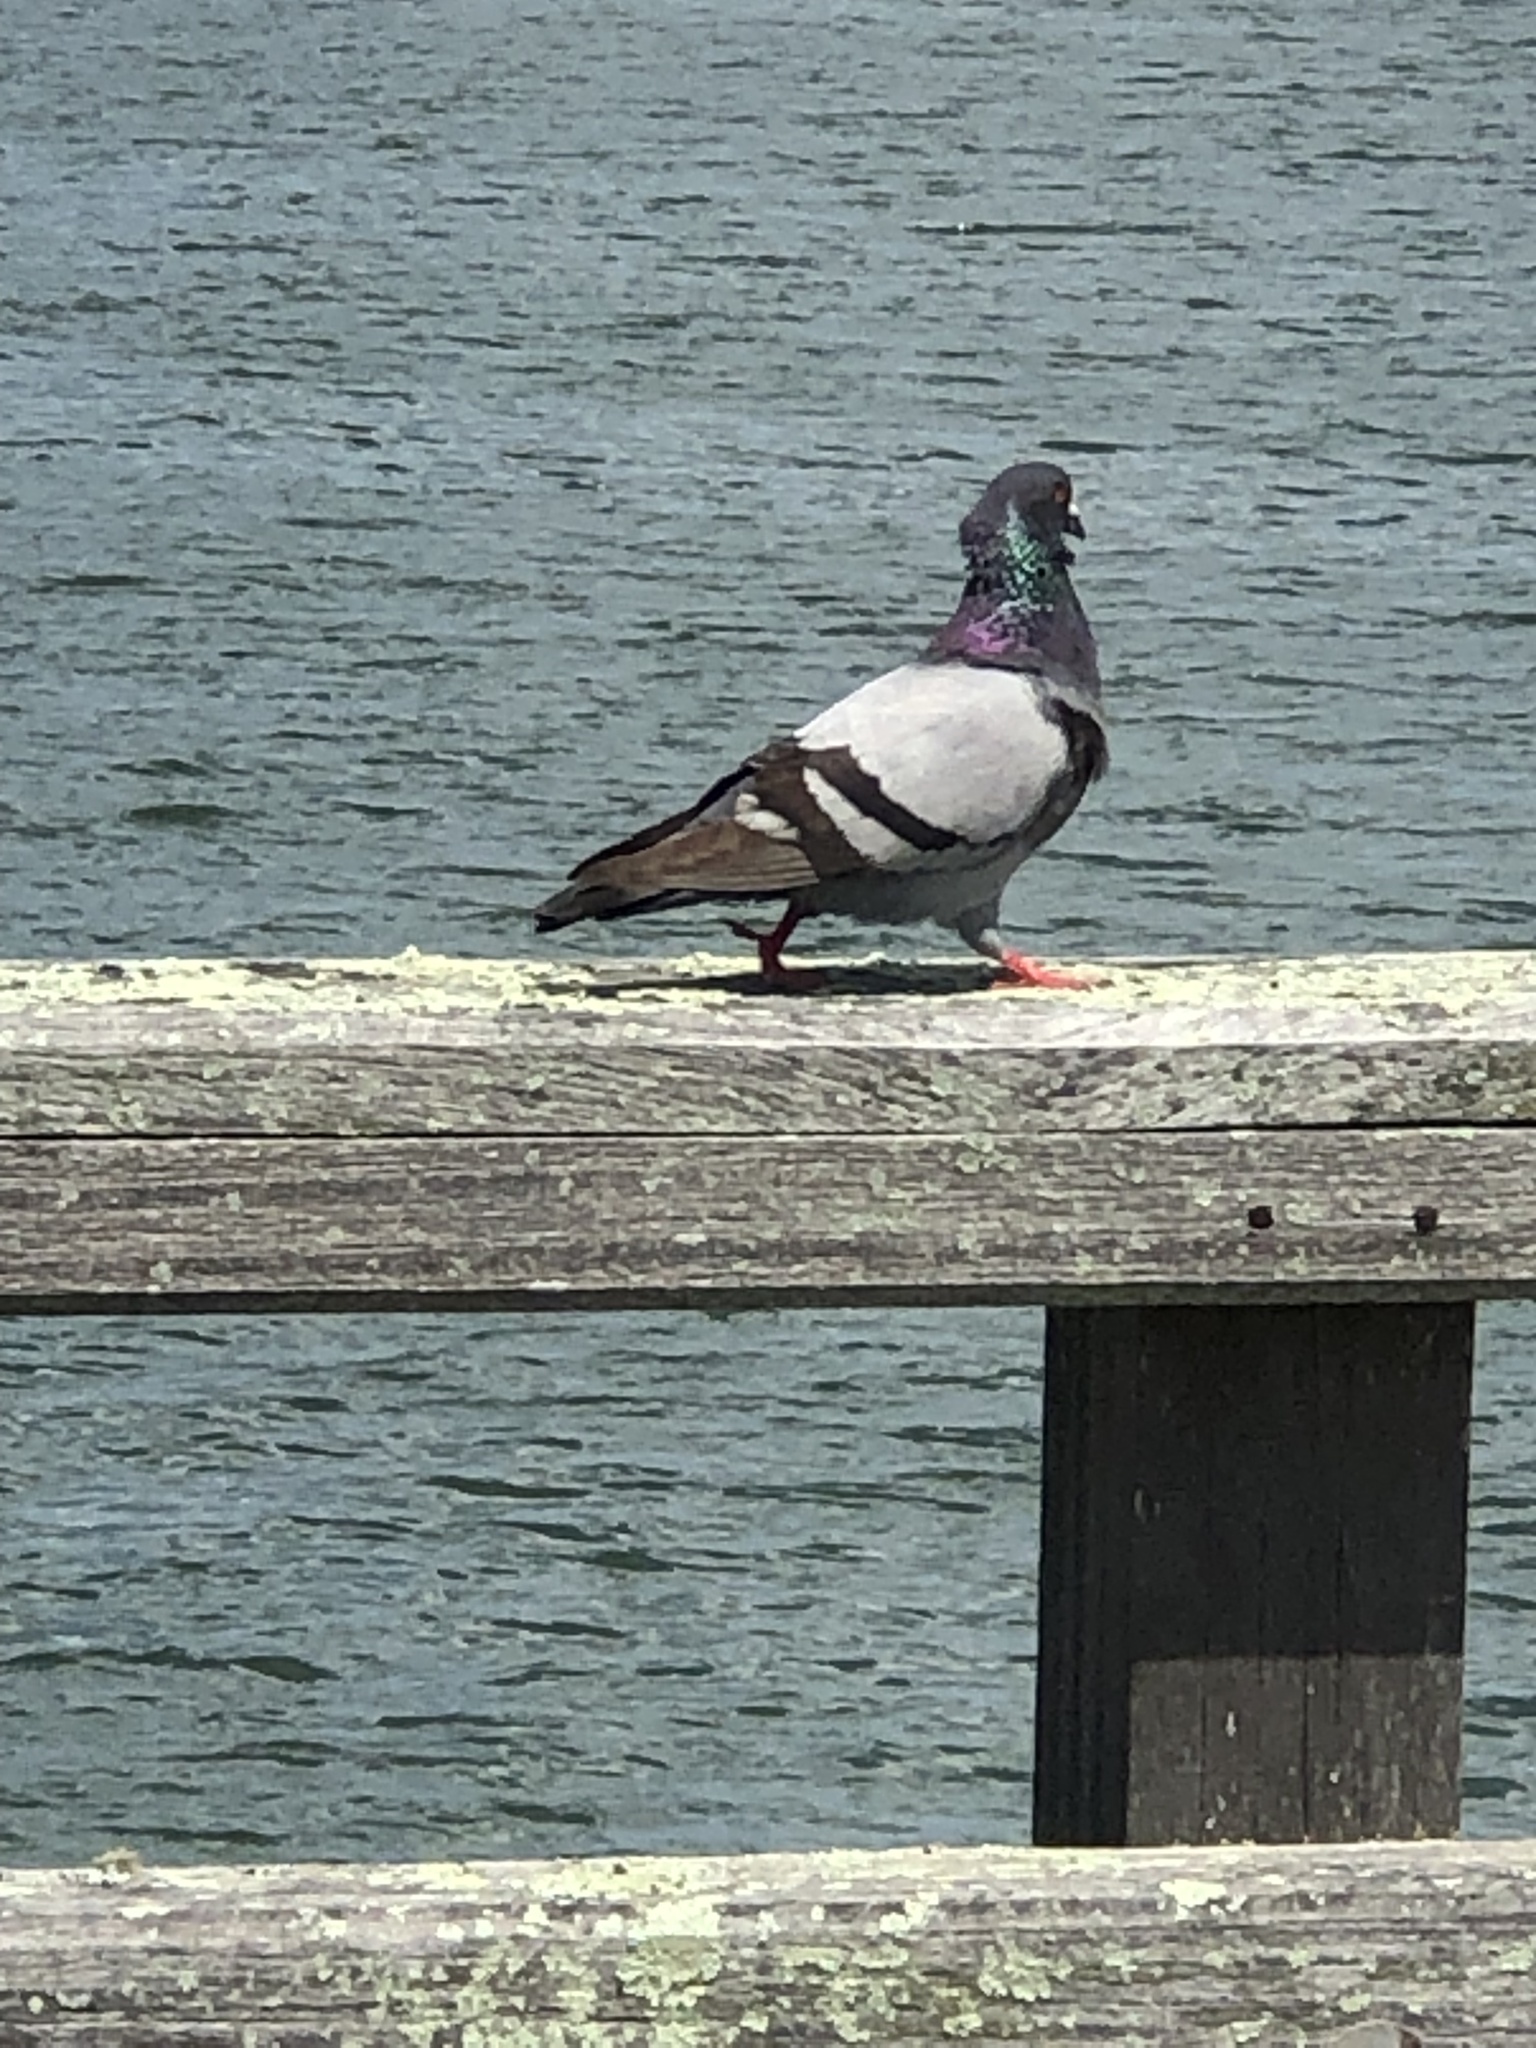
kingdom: Animalia
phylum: Chordata
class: Aves
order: Columbiformes
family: Columbidae
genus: Columba
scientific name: Columba livia
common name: Rock pigeon
